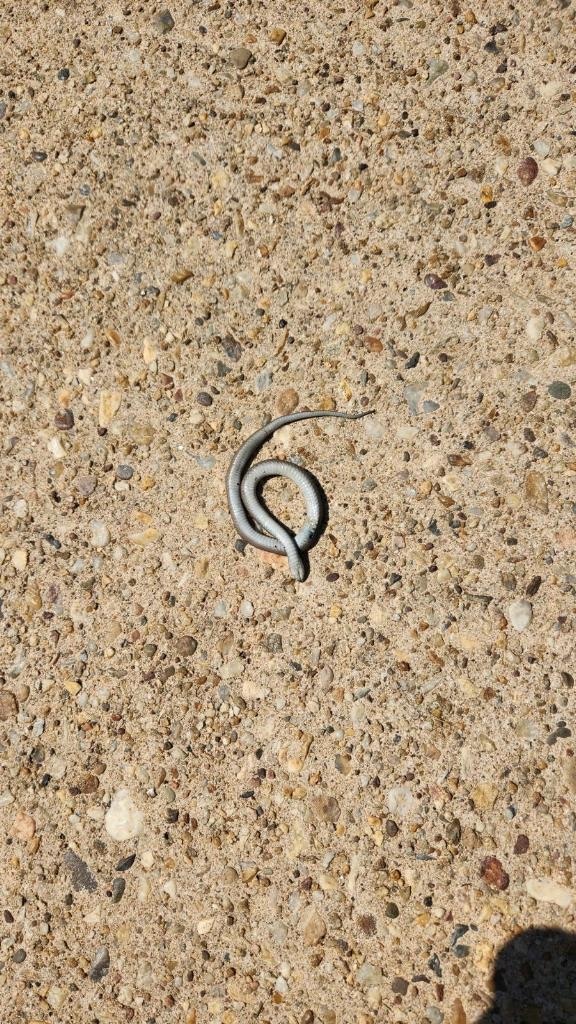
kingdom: Animalia
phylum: Chordata
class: Squamata
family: Colubridae
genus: Storeria
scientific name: Storeria dekayi
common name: (dekay’s) brown snake
